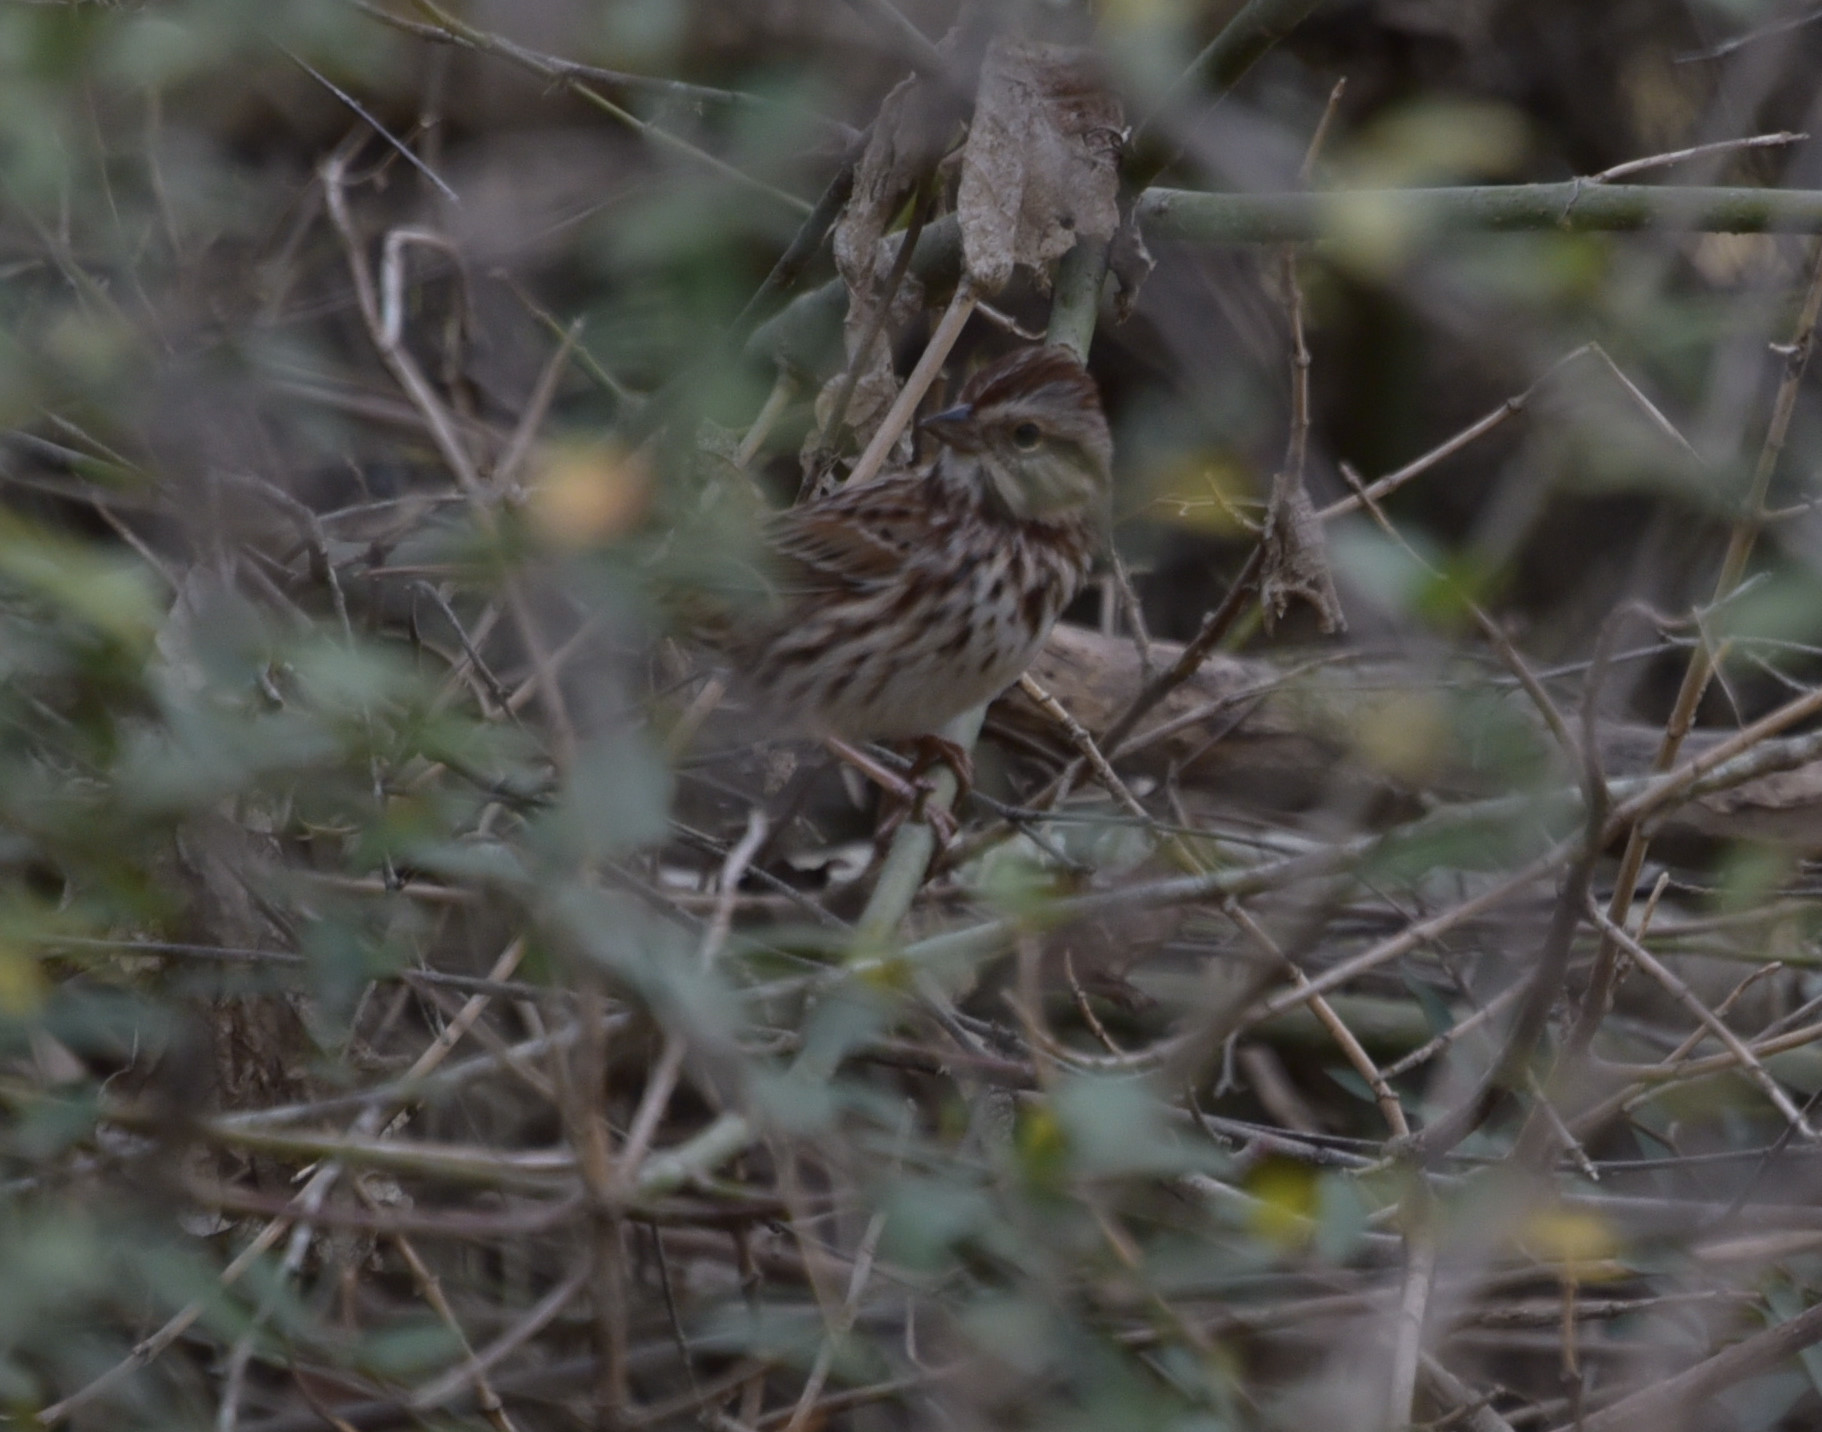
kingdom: Animalia
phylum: Chordata
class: Aves
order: Passeriformes
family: Passerellidae
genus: Melospiza
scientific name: Melospiza melodia
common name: Song sparrow
